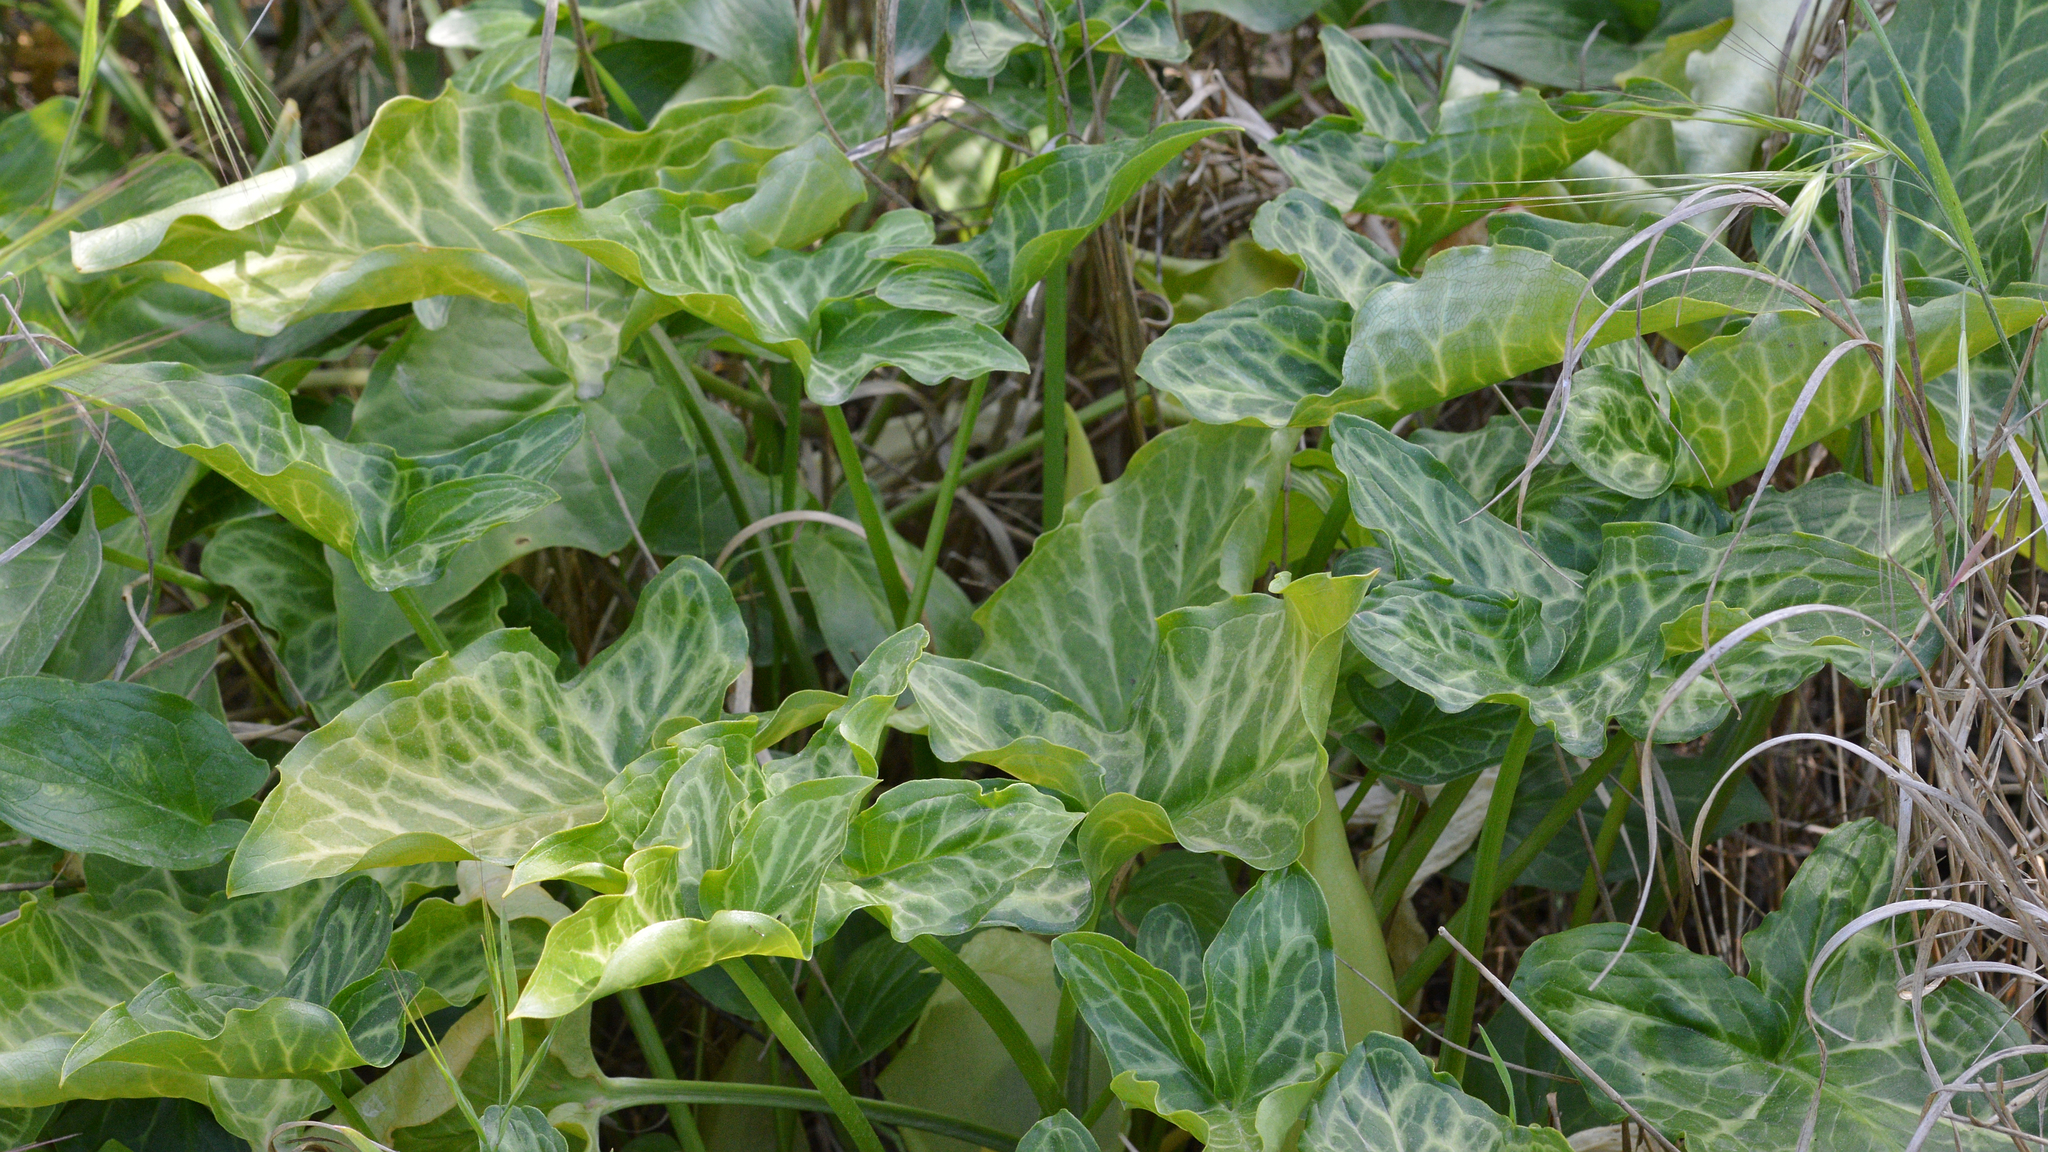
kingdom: Plantae
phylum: Tracheophyta
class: Liliopsida
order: Alismatales
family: Araceae
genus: Arum
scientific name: Arum italicum
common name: Italian lords-and-ladies
